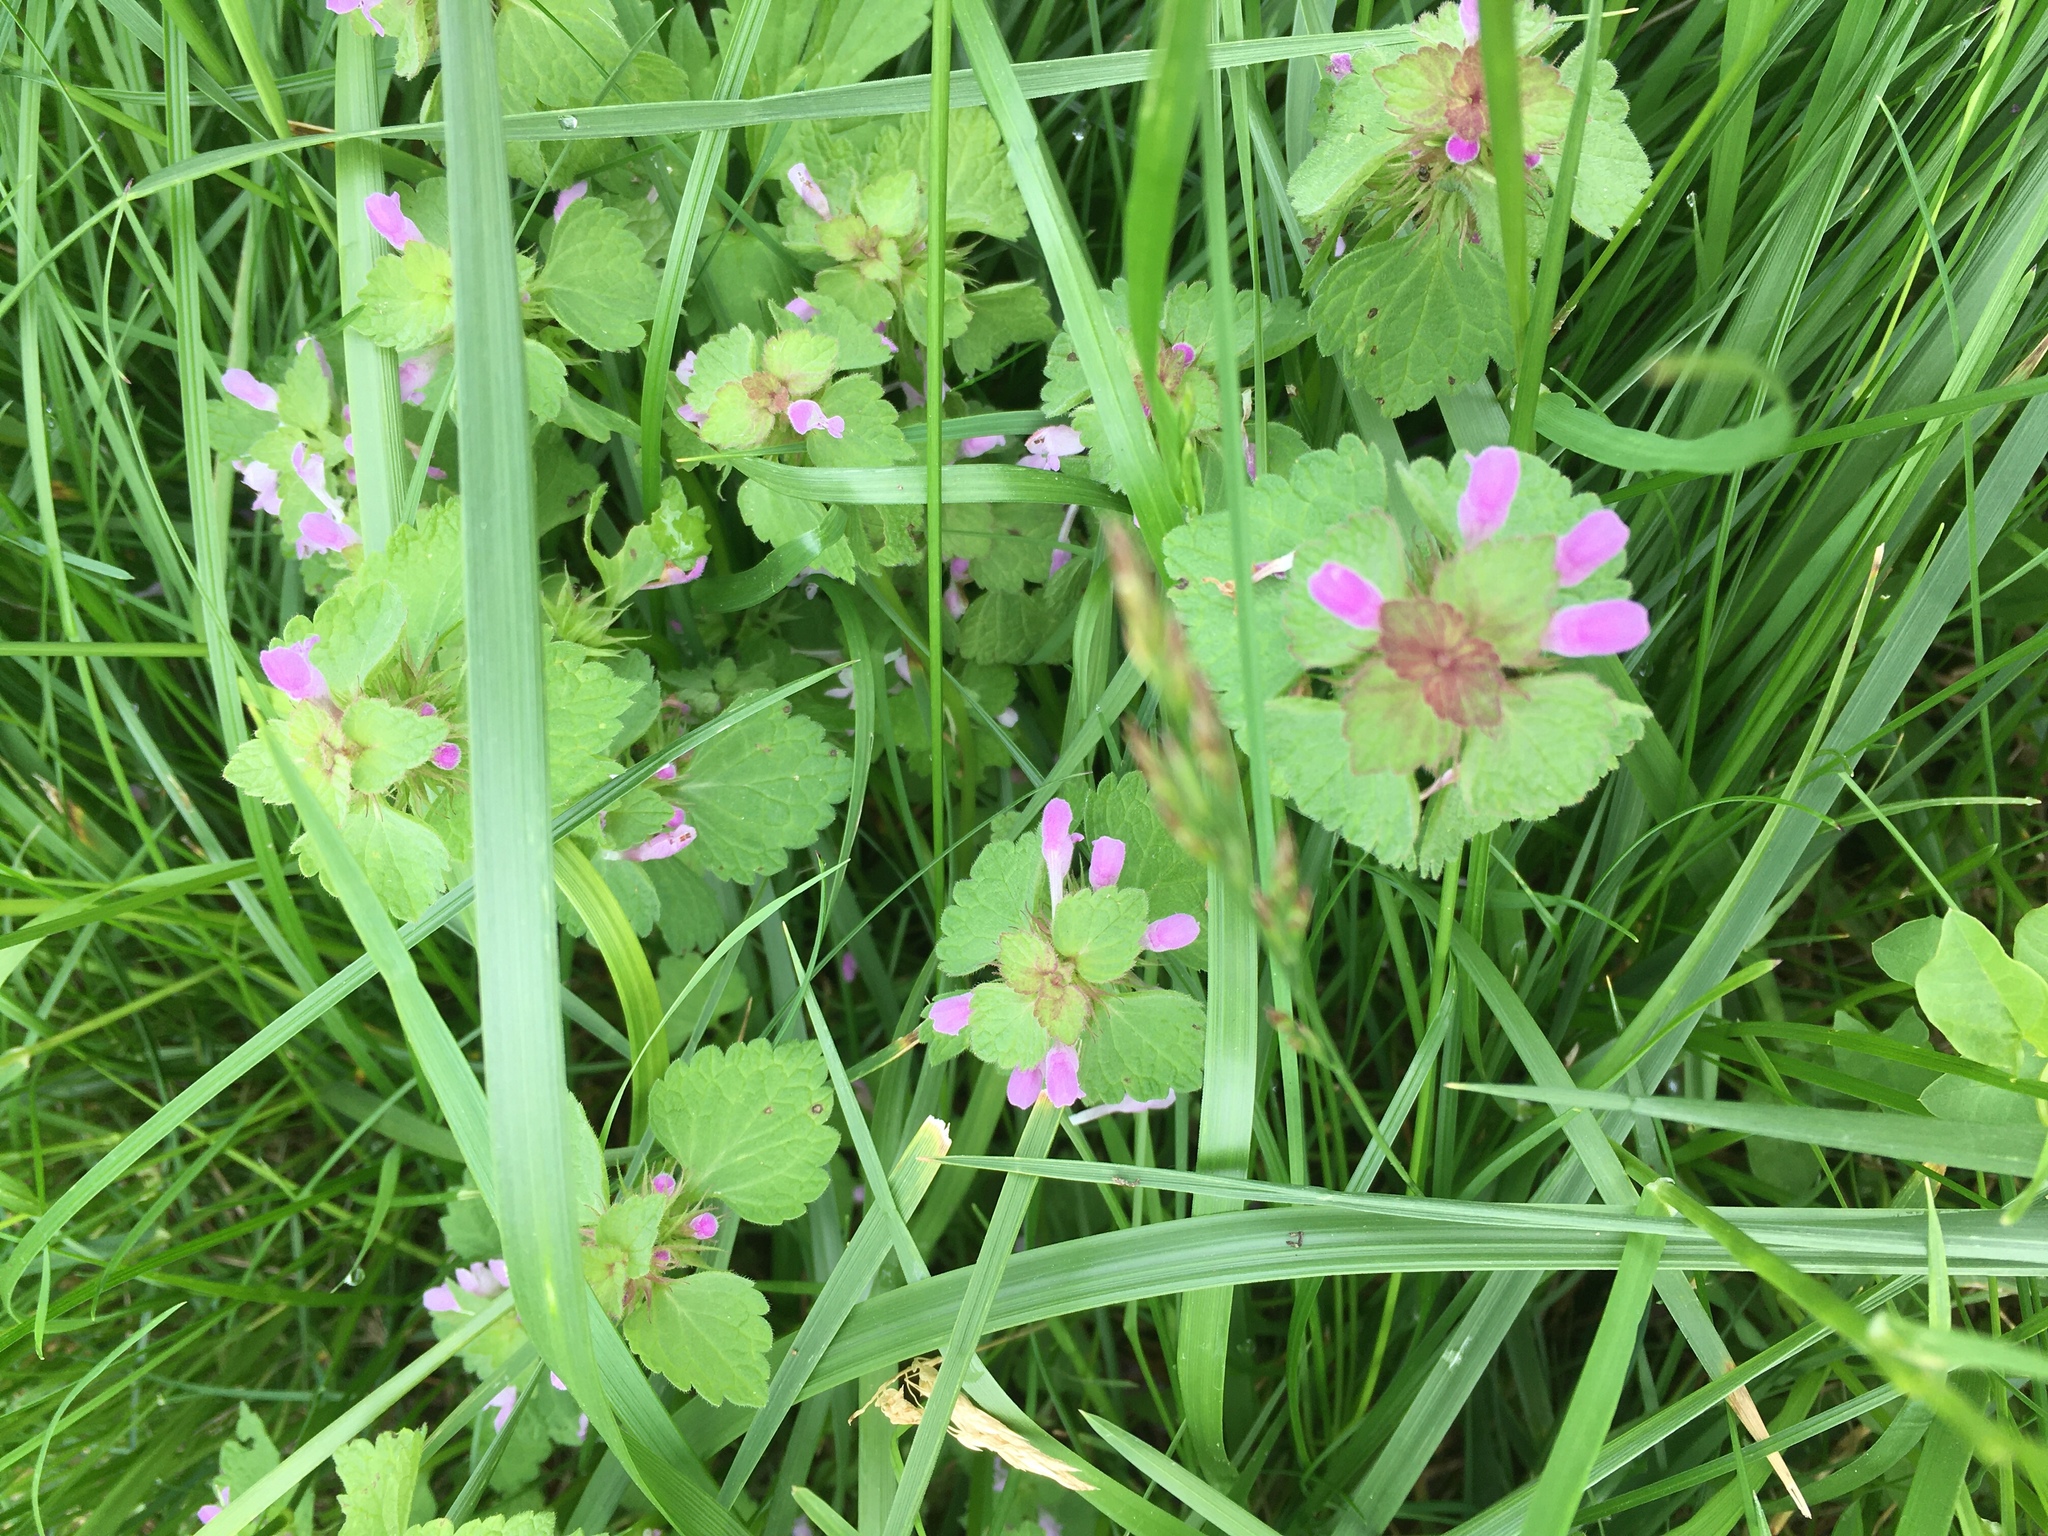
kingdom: Plantae
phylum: Tracheophyta
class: Magnoliopsida
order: Lamiales
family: Lamiaceae
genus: Lamium
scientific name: Lamium purpureum
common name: Red dead-nettle
